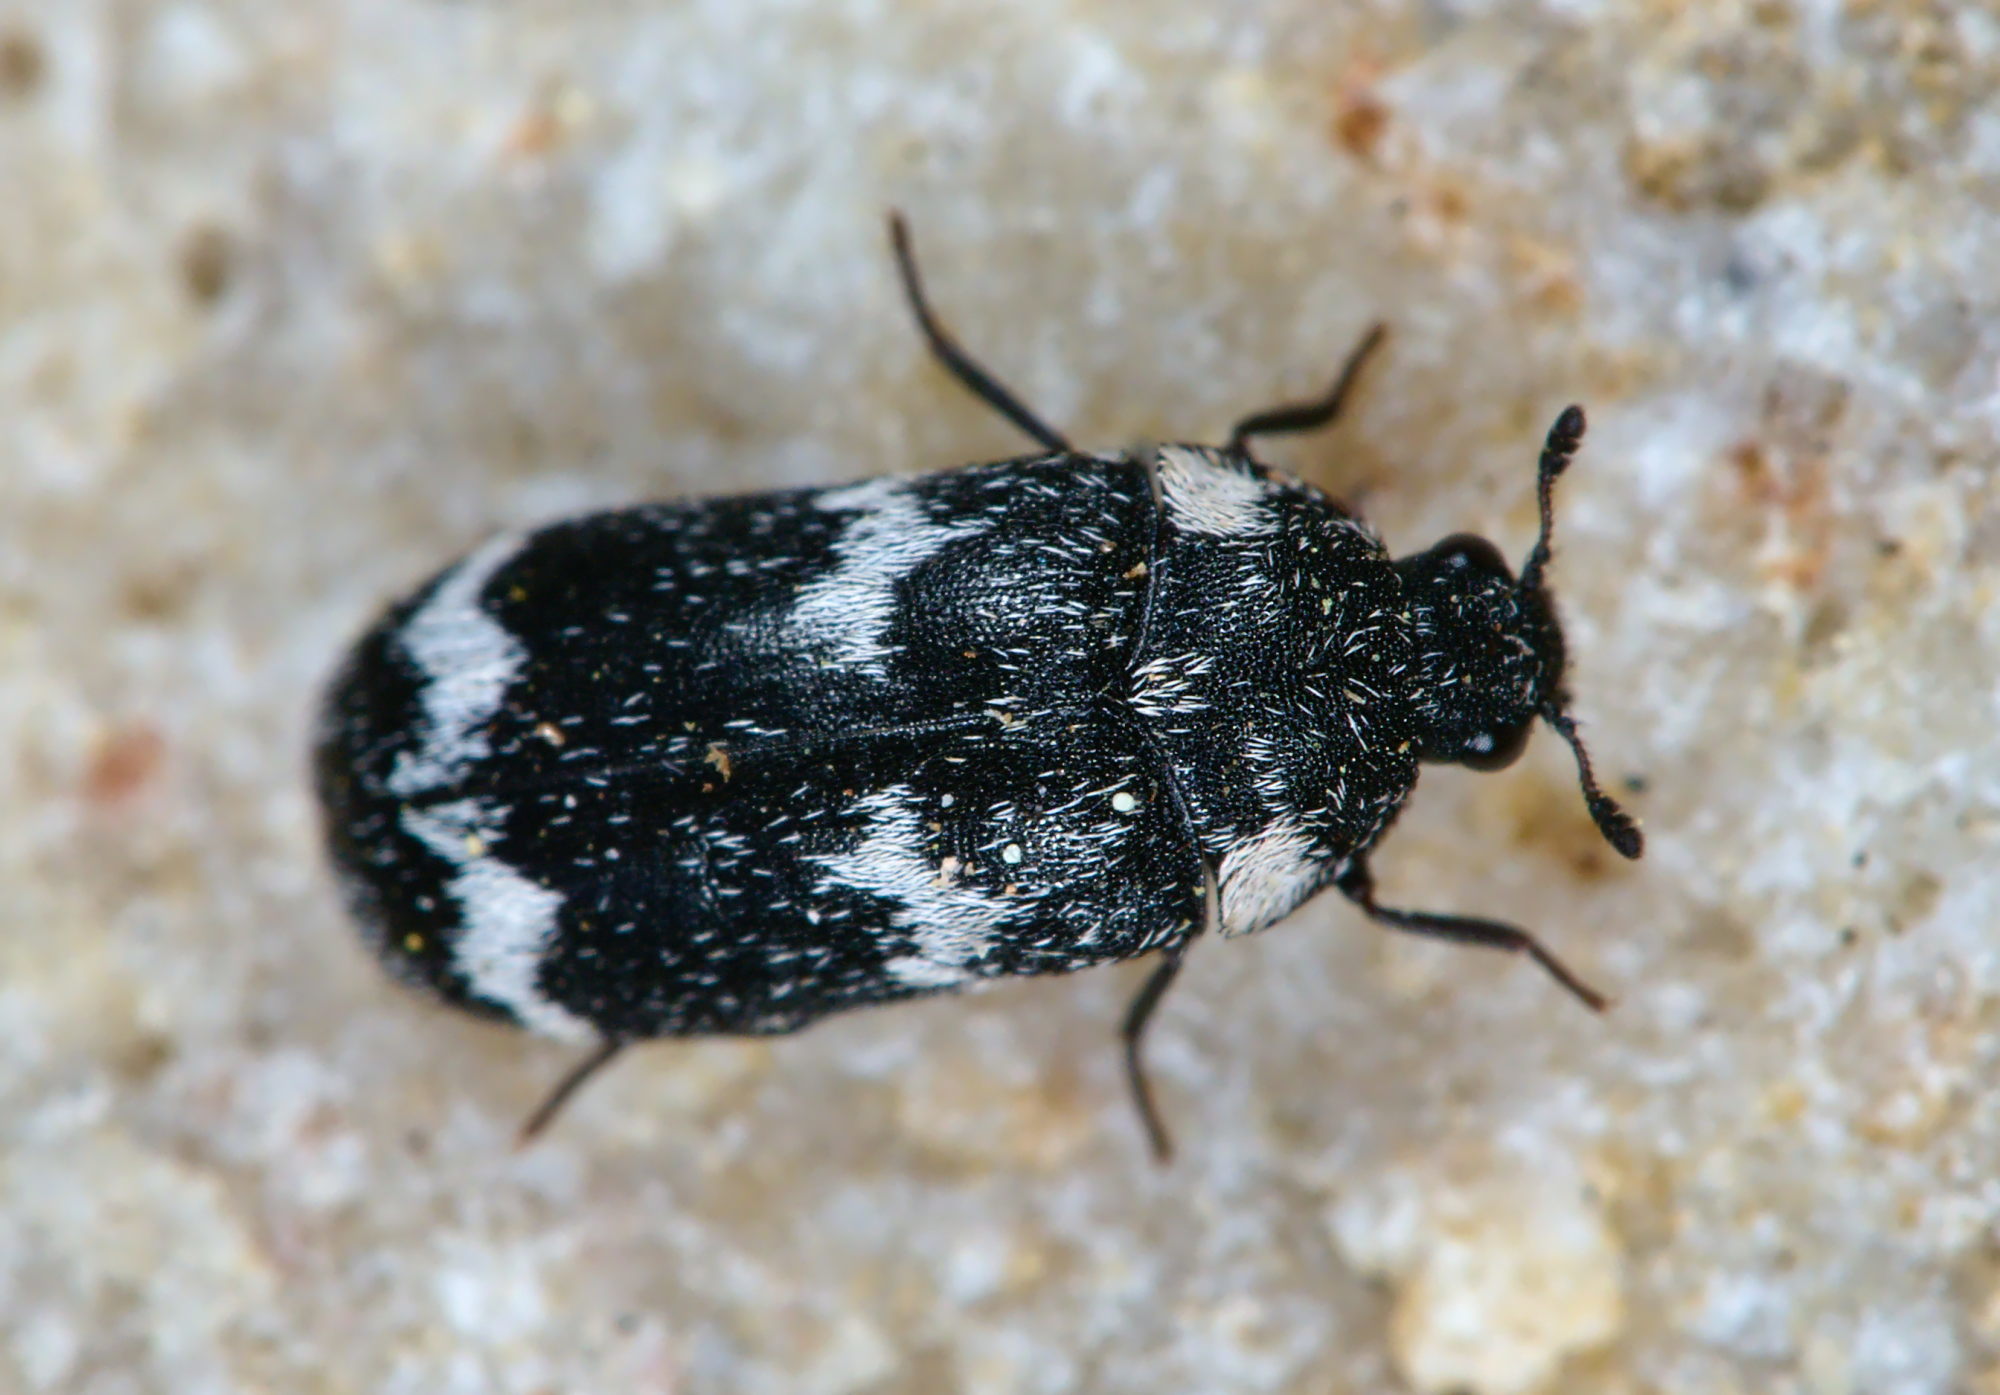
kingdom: Animalia
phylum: Arthropoda
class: Insecta
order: Coleoptera
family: Dermestidae
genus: Megatoma
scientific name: Megatoma undata
